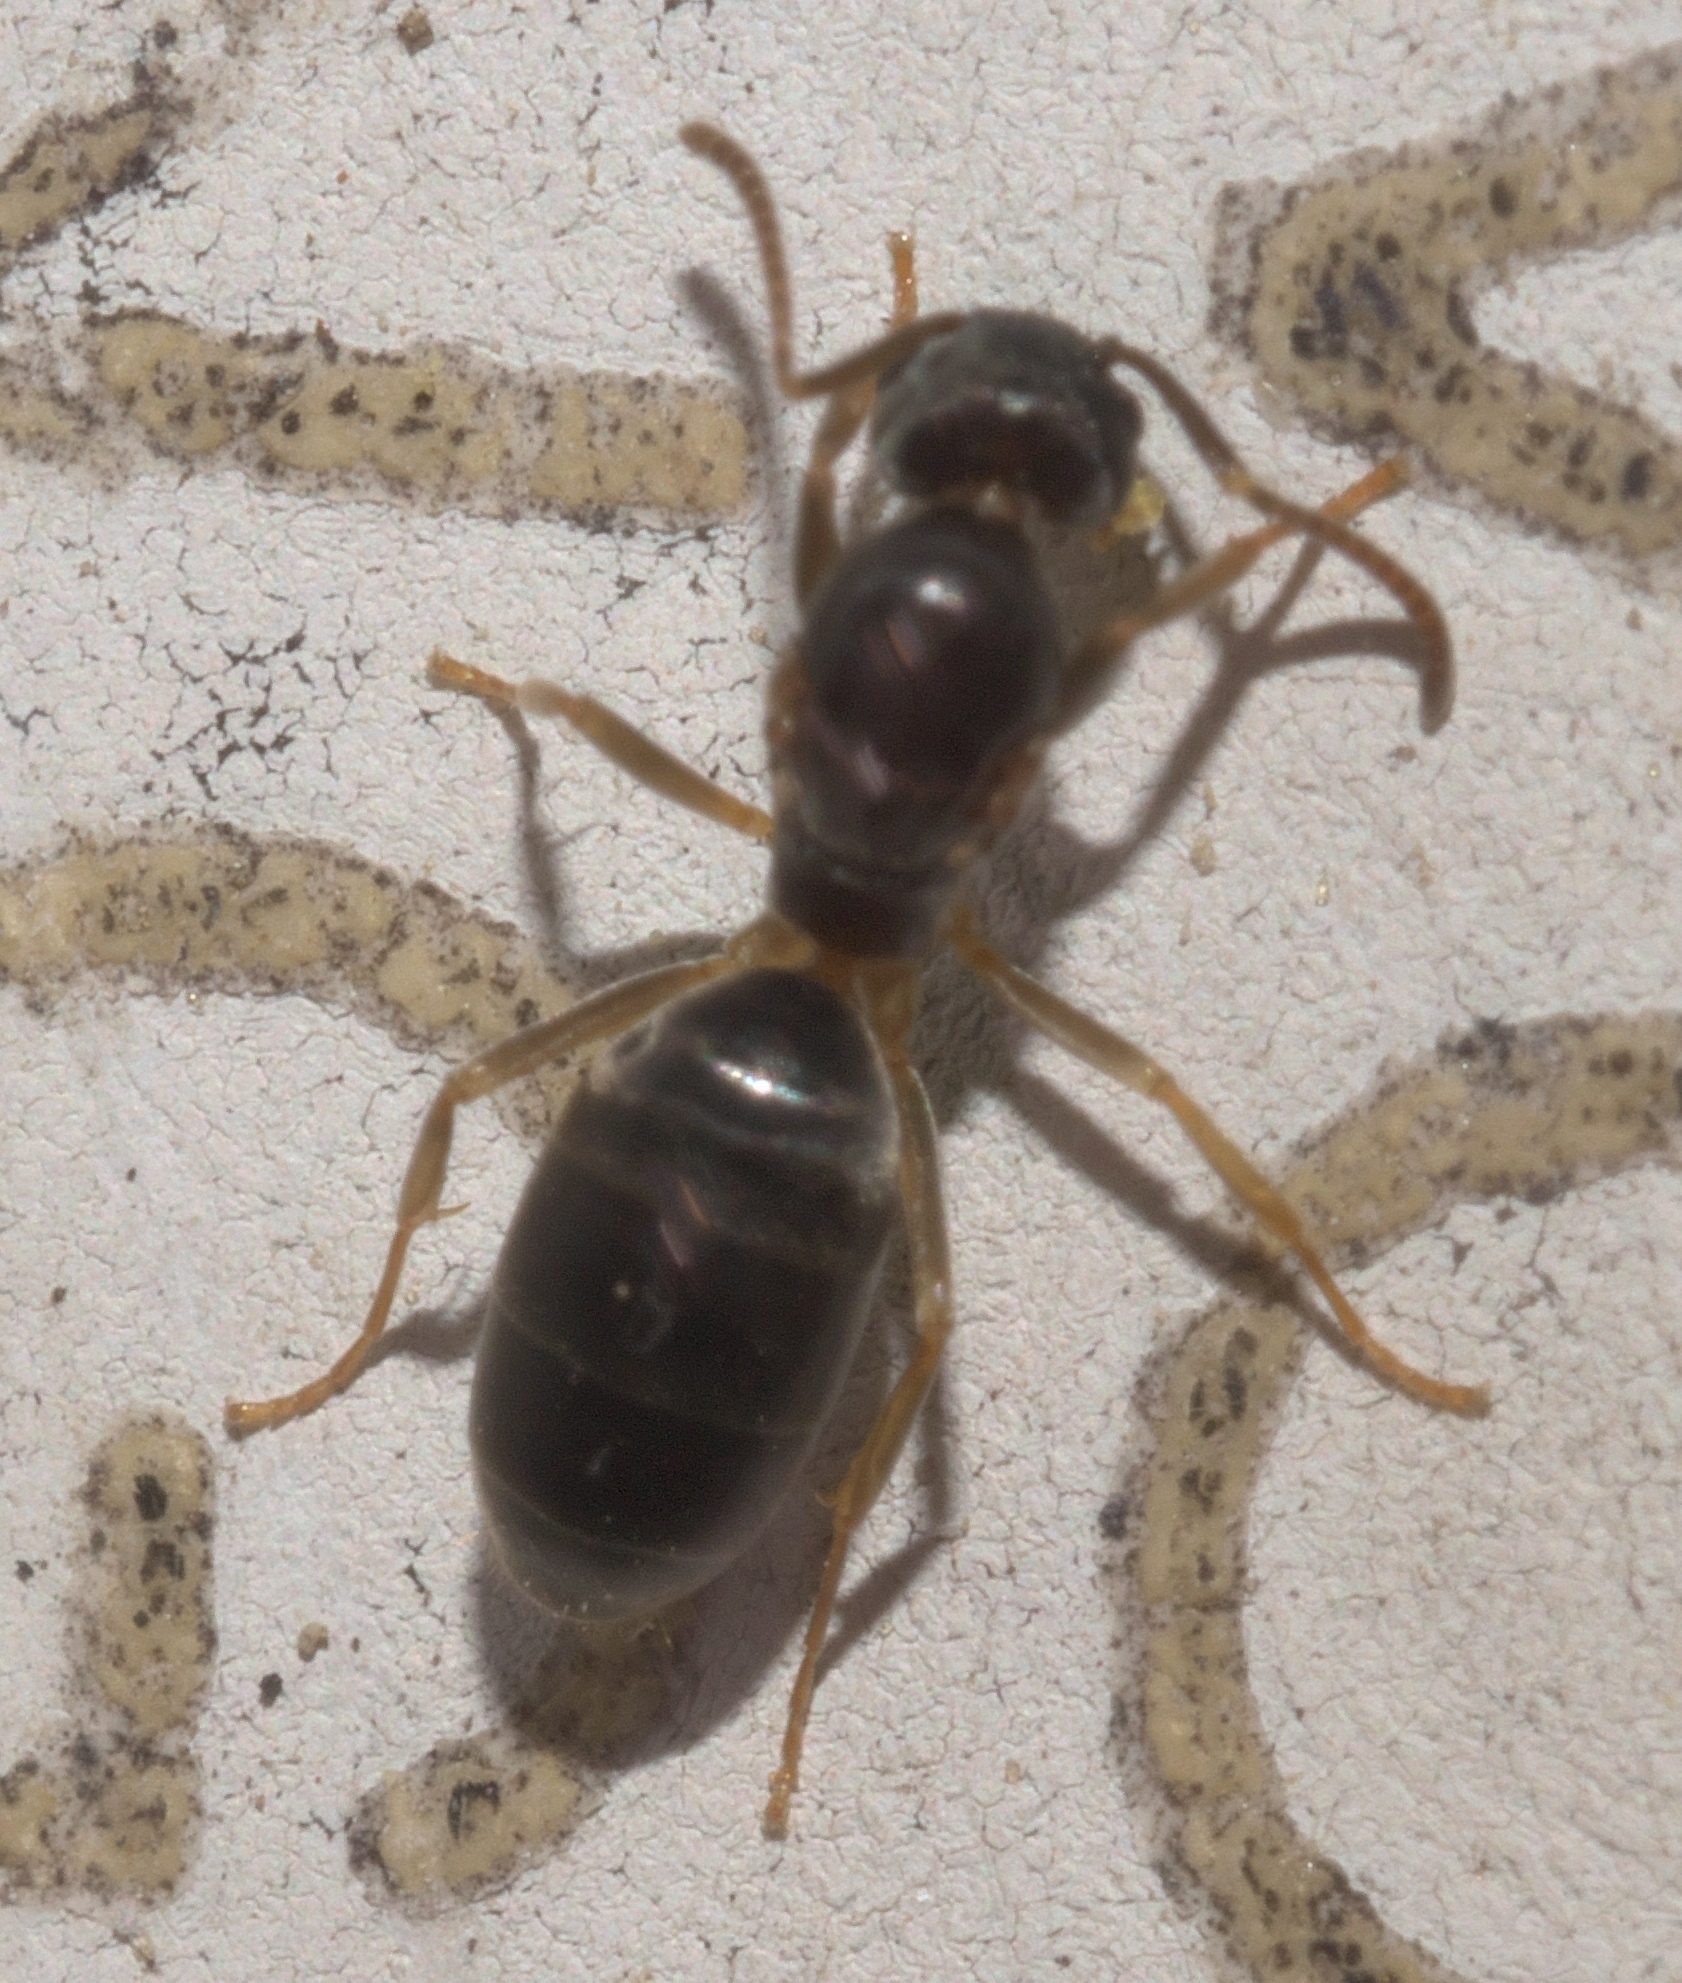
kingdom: Animalia
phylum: Arthropoda
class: Insecta
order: Hymenoptera
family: Formicidae
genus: Tapinoma
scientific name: Tapinoma sessile
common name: Odorous house ant
